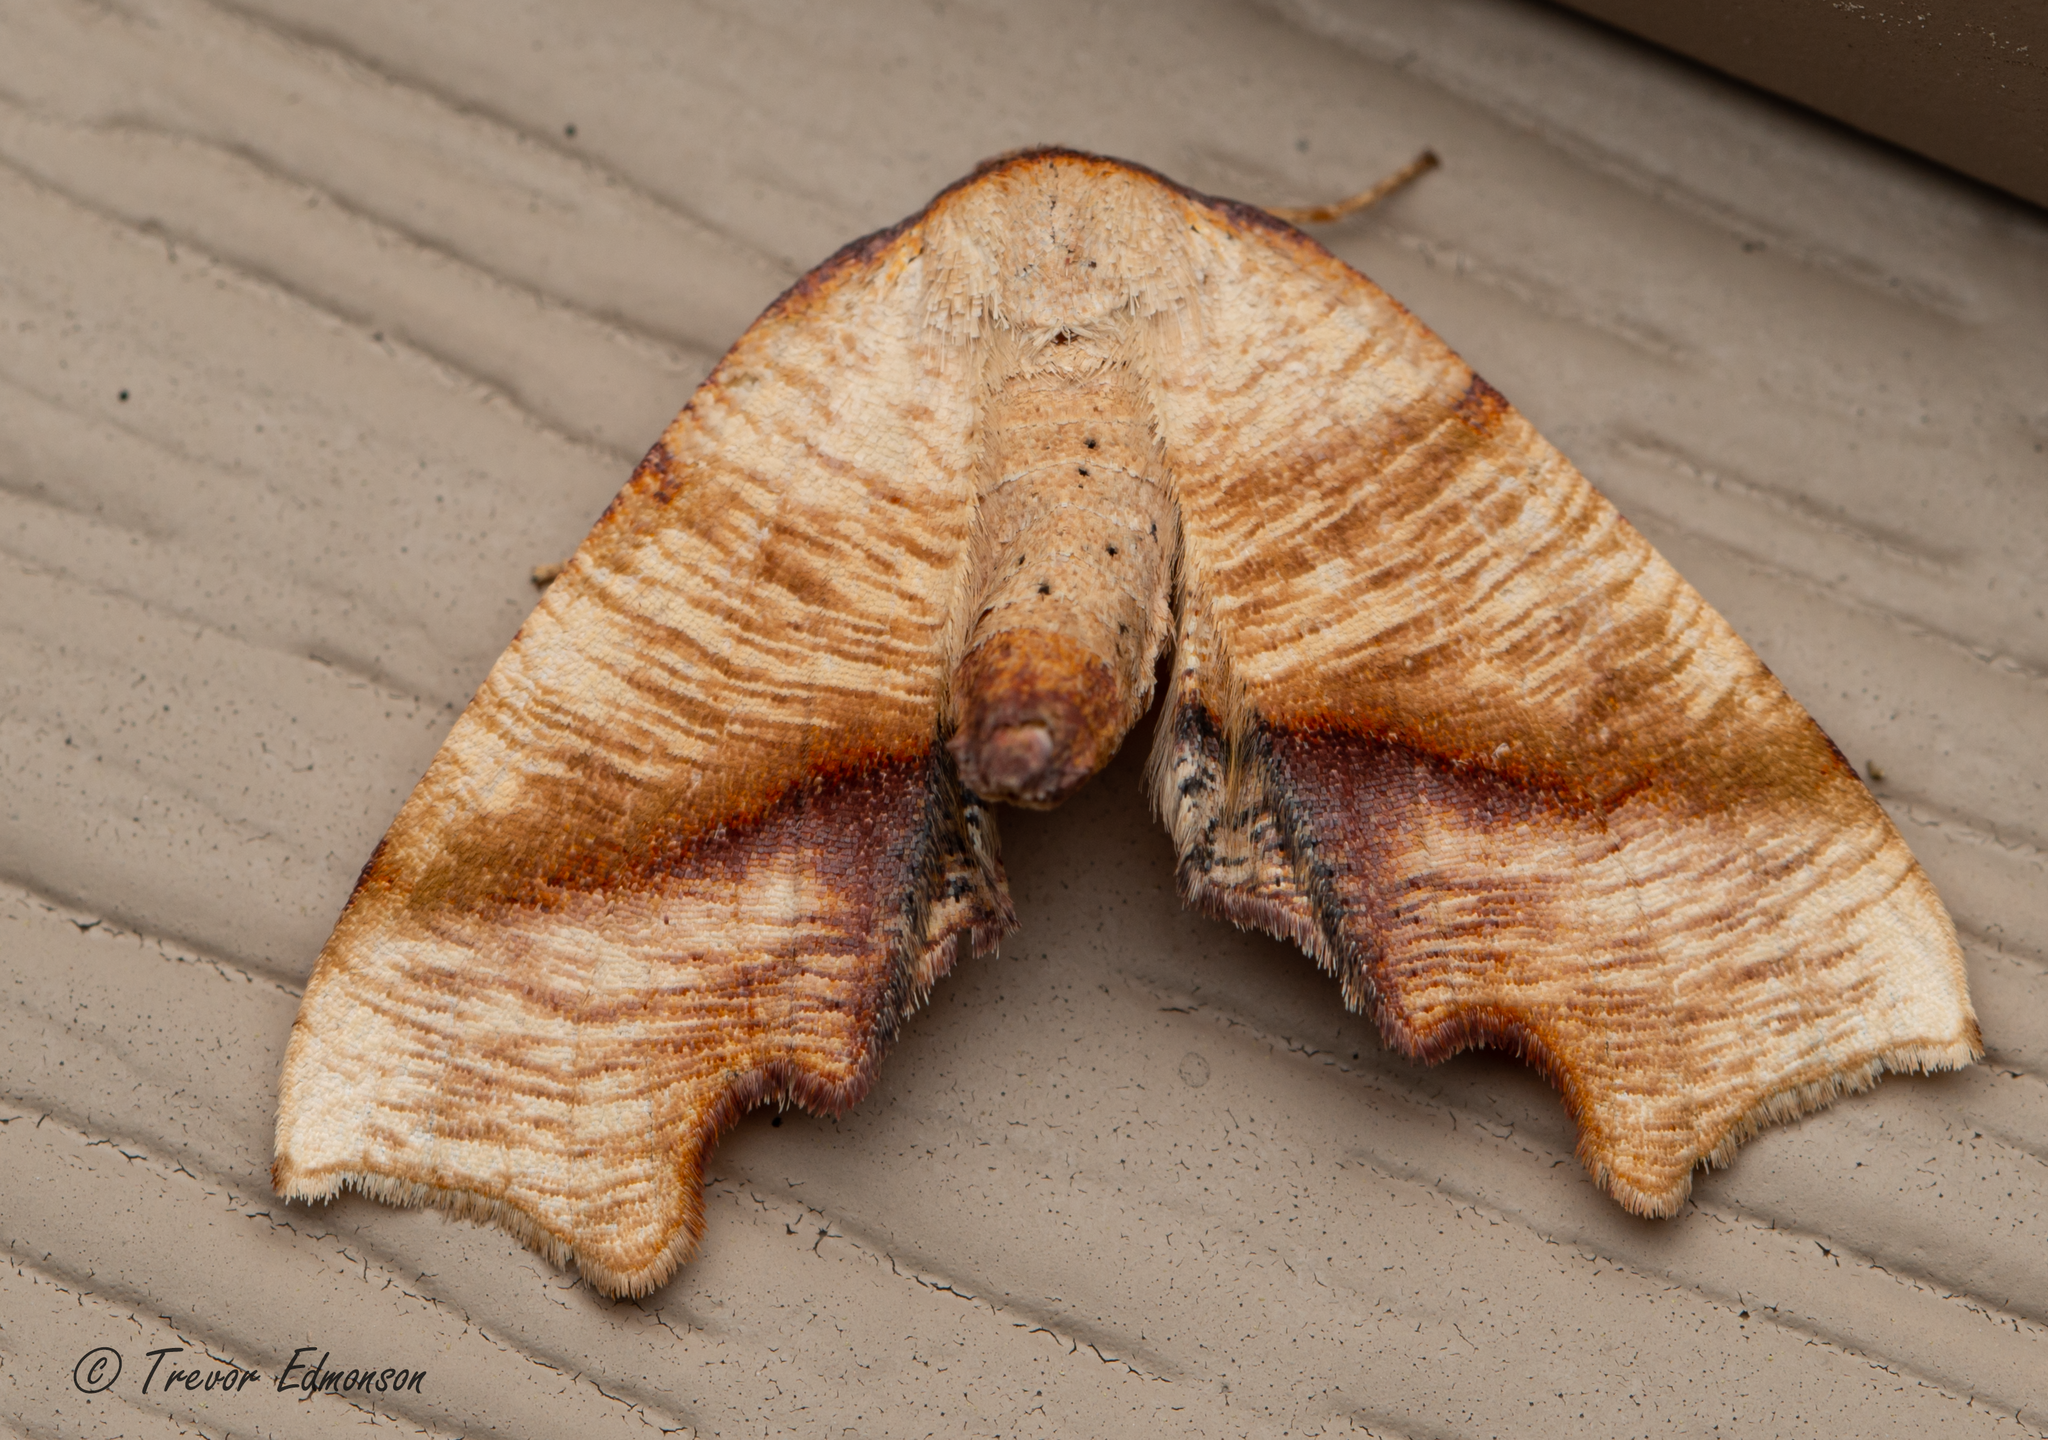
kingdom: Animalia
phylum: Arthropoda
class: Insecta
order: Lepidoptera
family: Geometridae
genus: Plagodis
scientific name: Plagodis fervidaria
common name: Fervid plagodis
